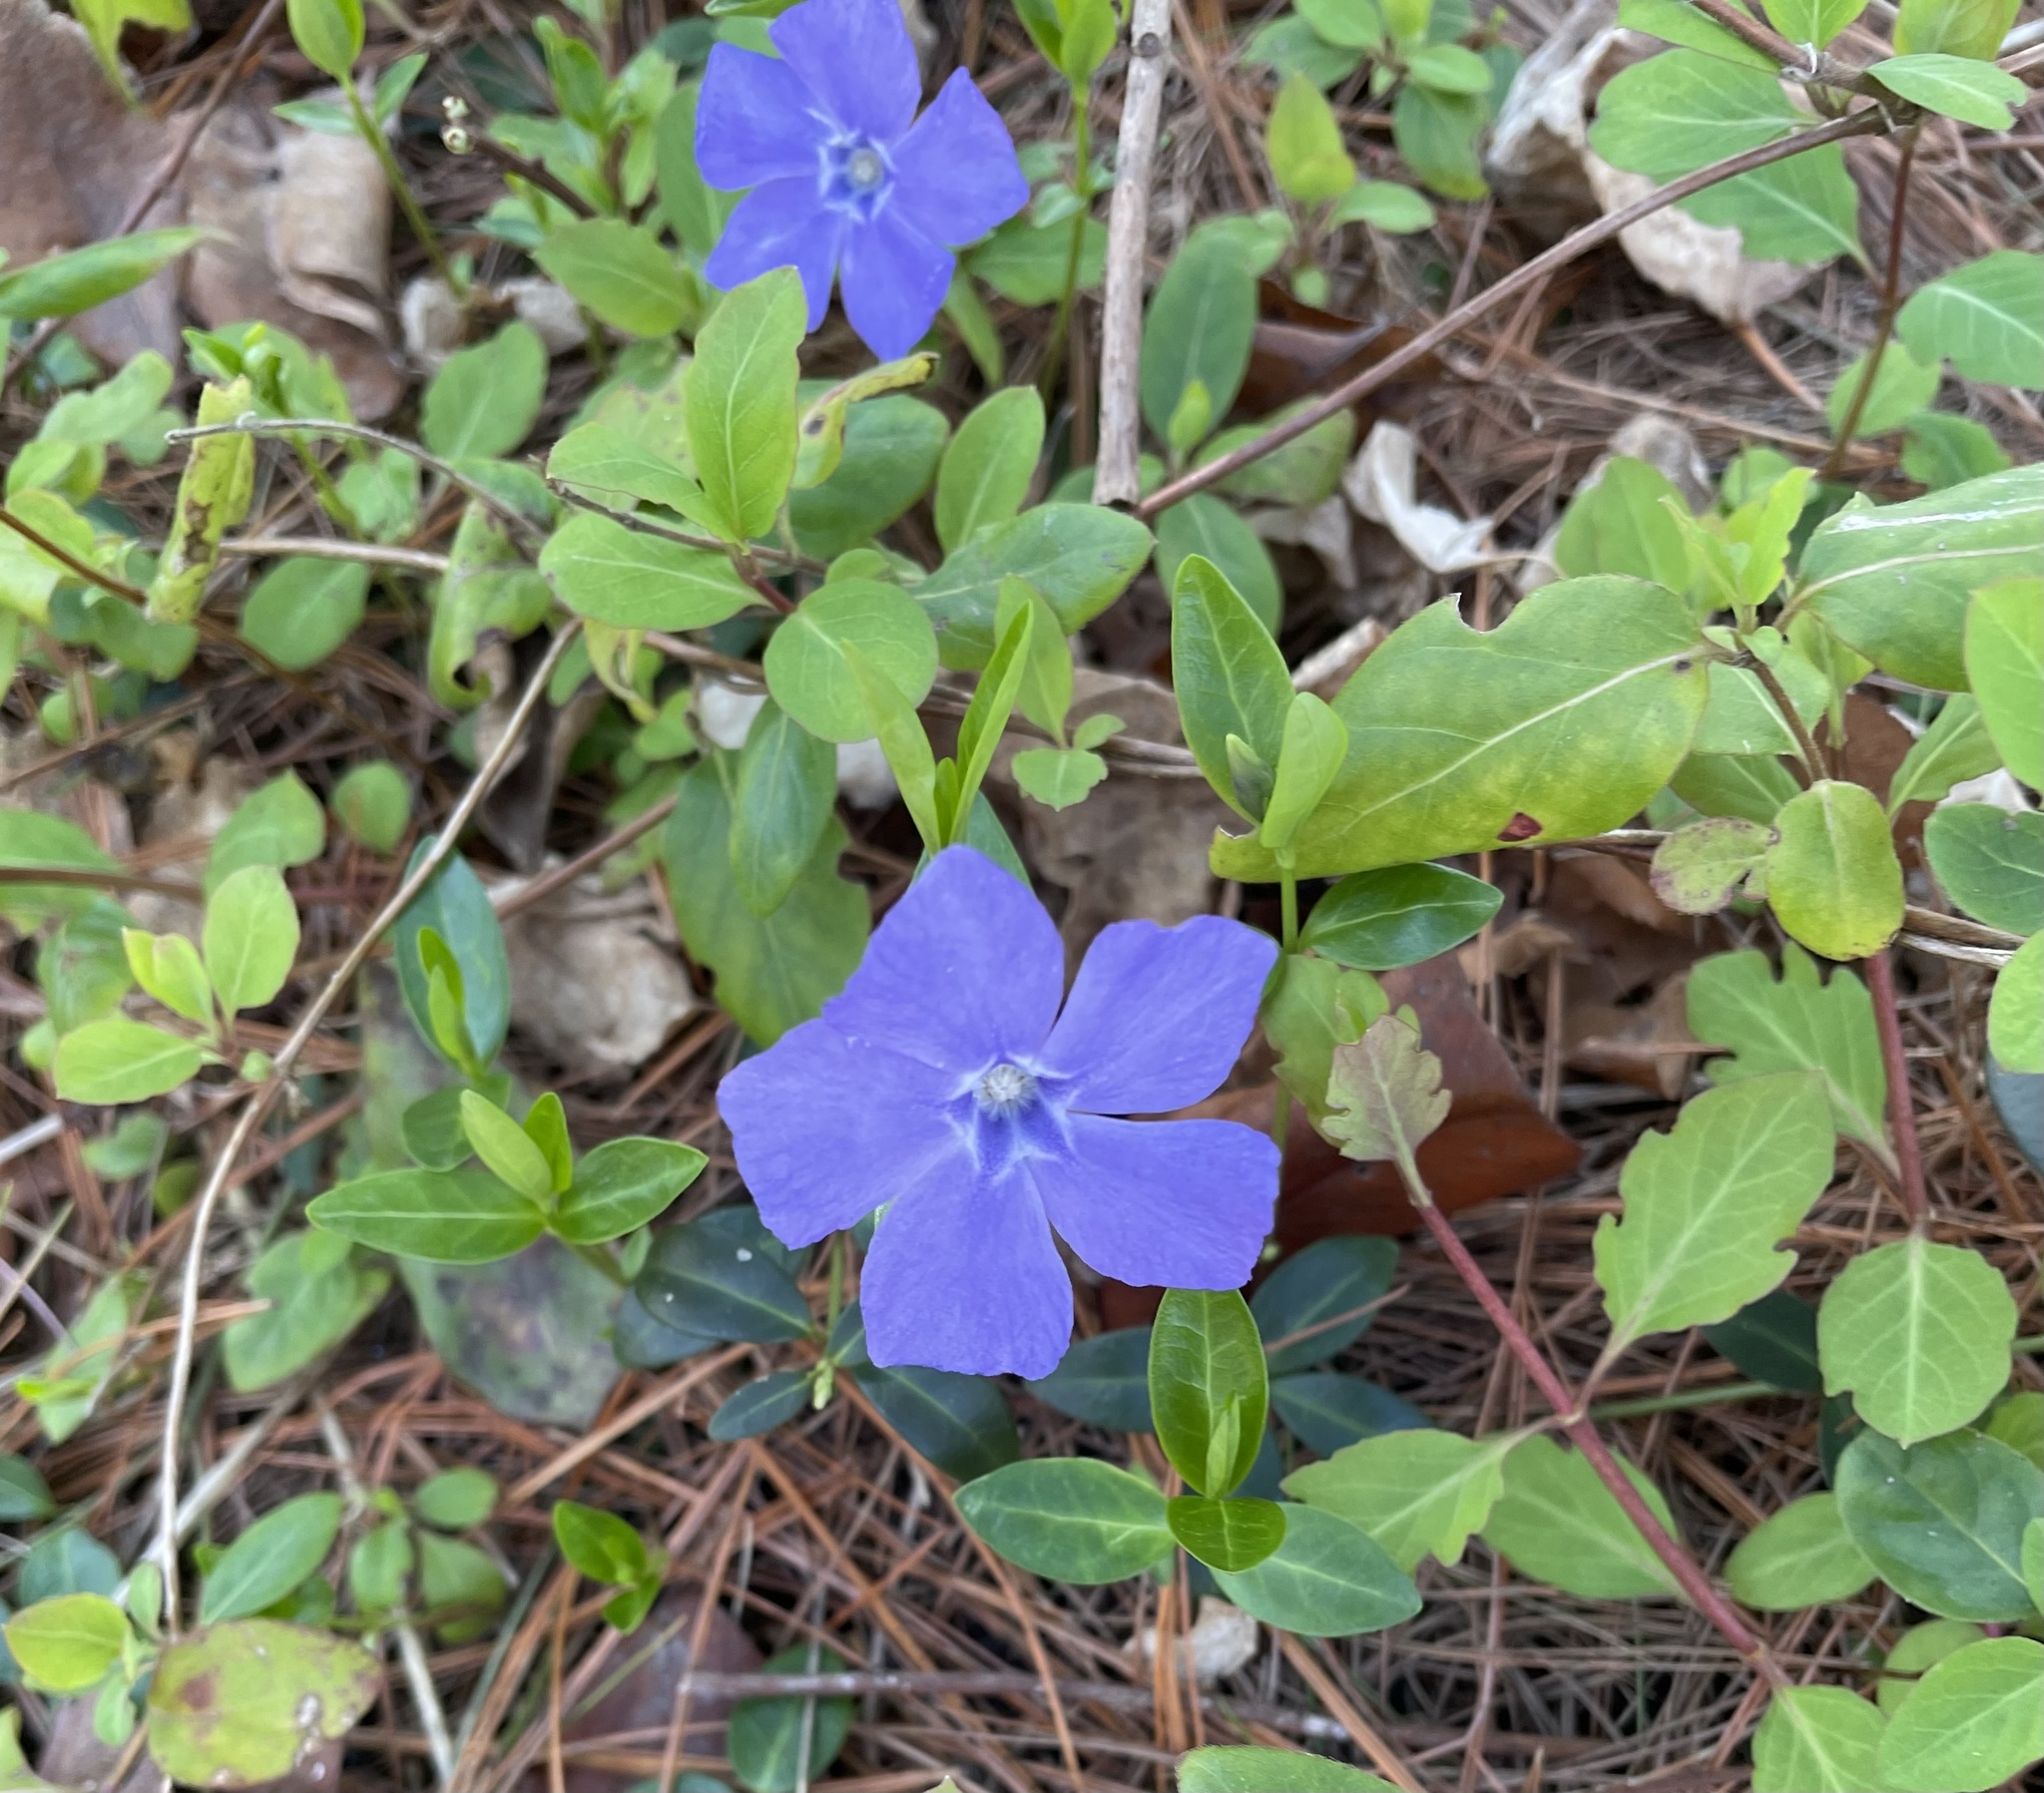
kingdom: Plantae
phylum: Tracheophyta
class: Magnoliopsida
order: Gentianales
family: Apocynaceae
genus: Vinca
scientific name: Vinca minor
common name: Lesser periwinkle
